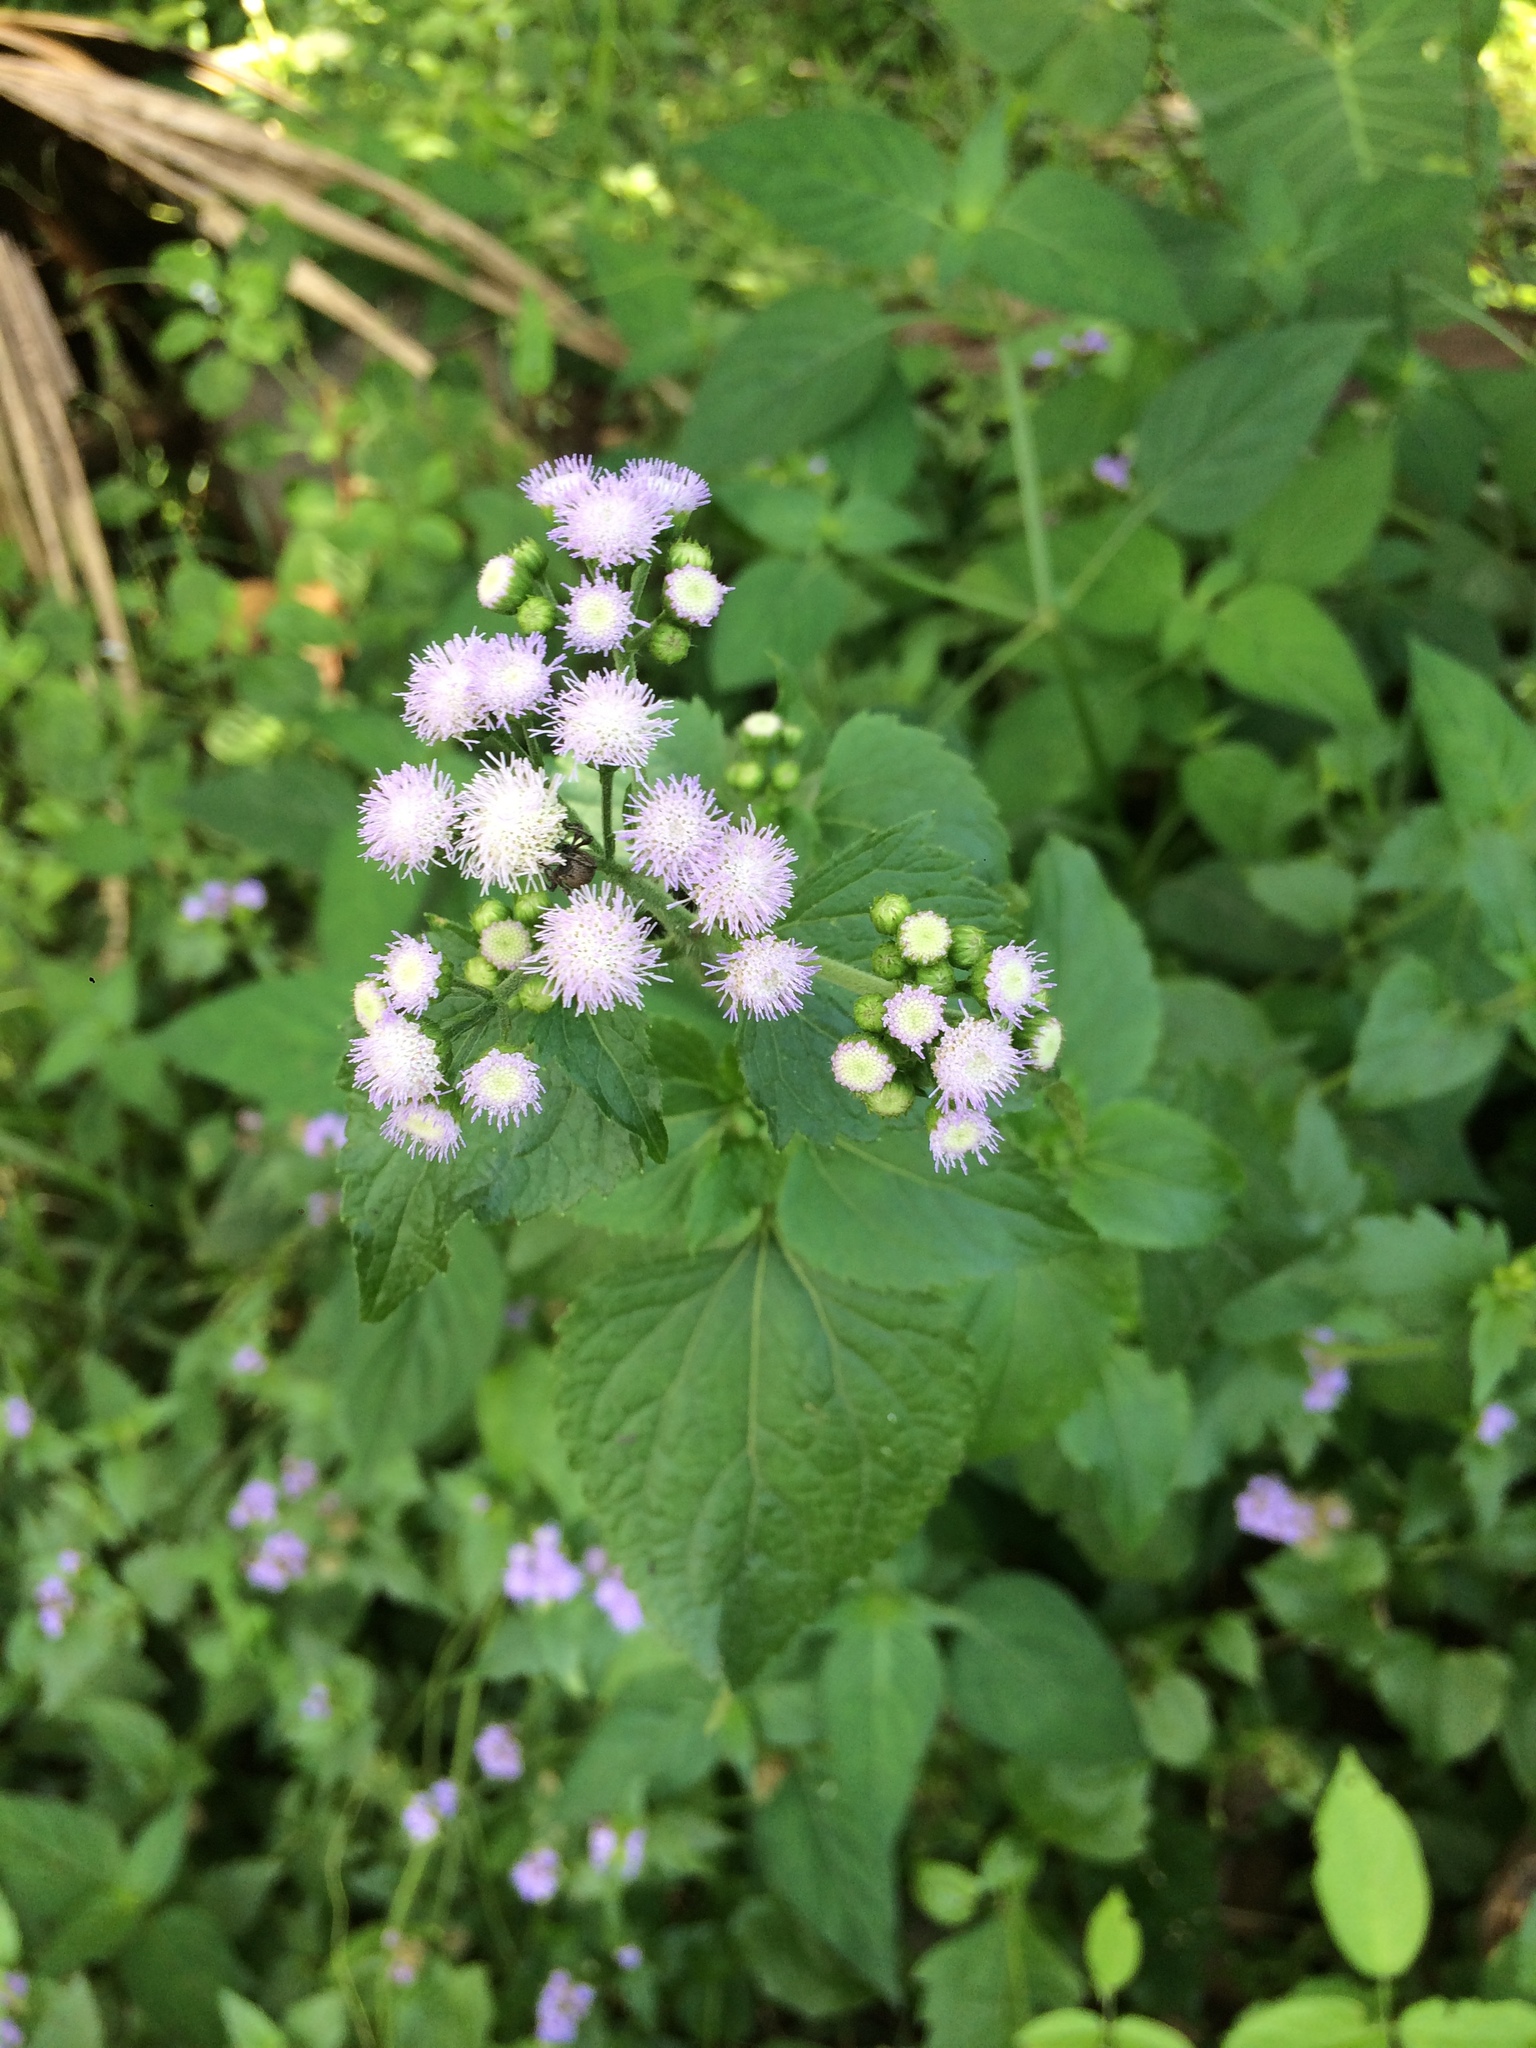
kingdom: Plantae
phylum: Tracheophyta
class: Magnoliopsida
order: Asterales
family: Asteraceae
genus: Ageratum
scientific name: Ageratum conyzoides
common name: Tropical whiteweed
